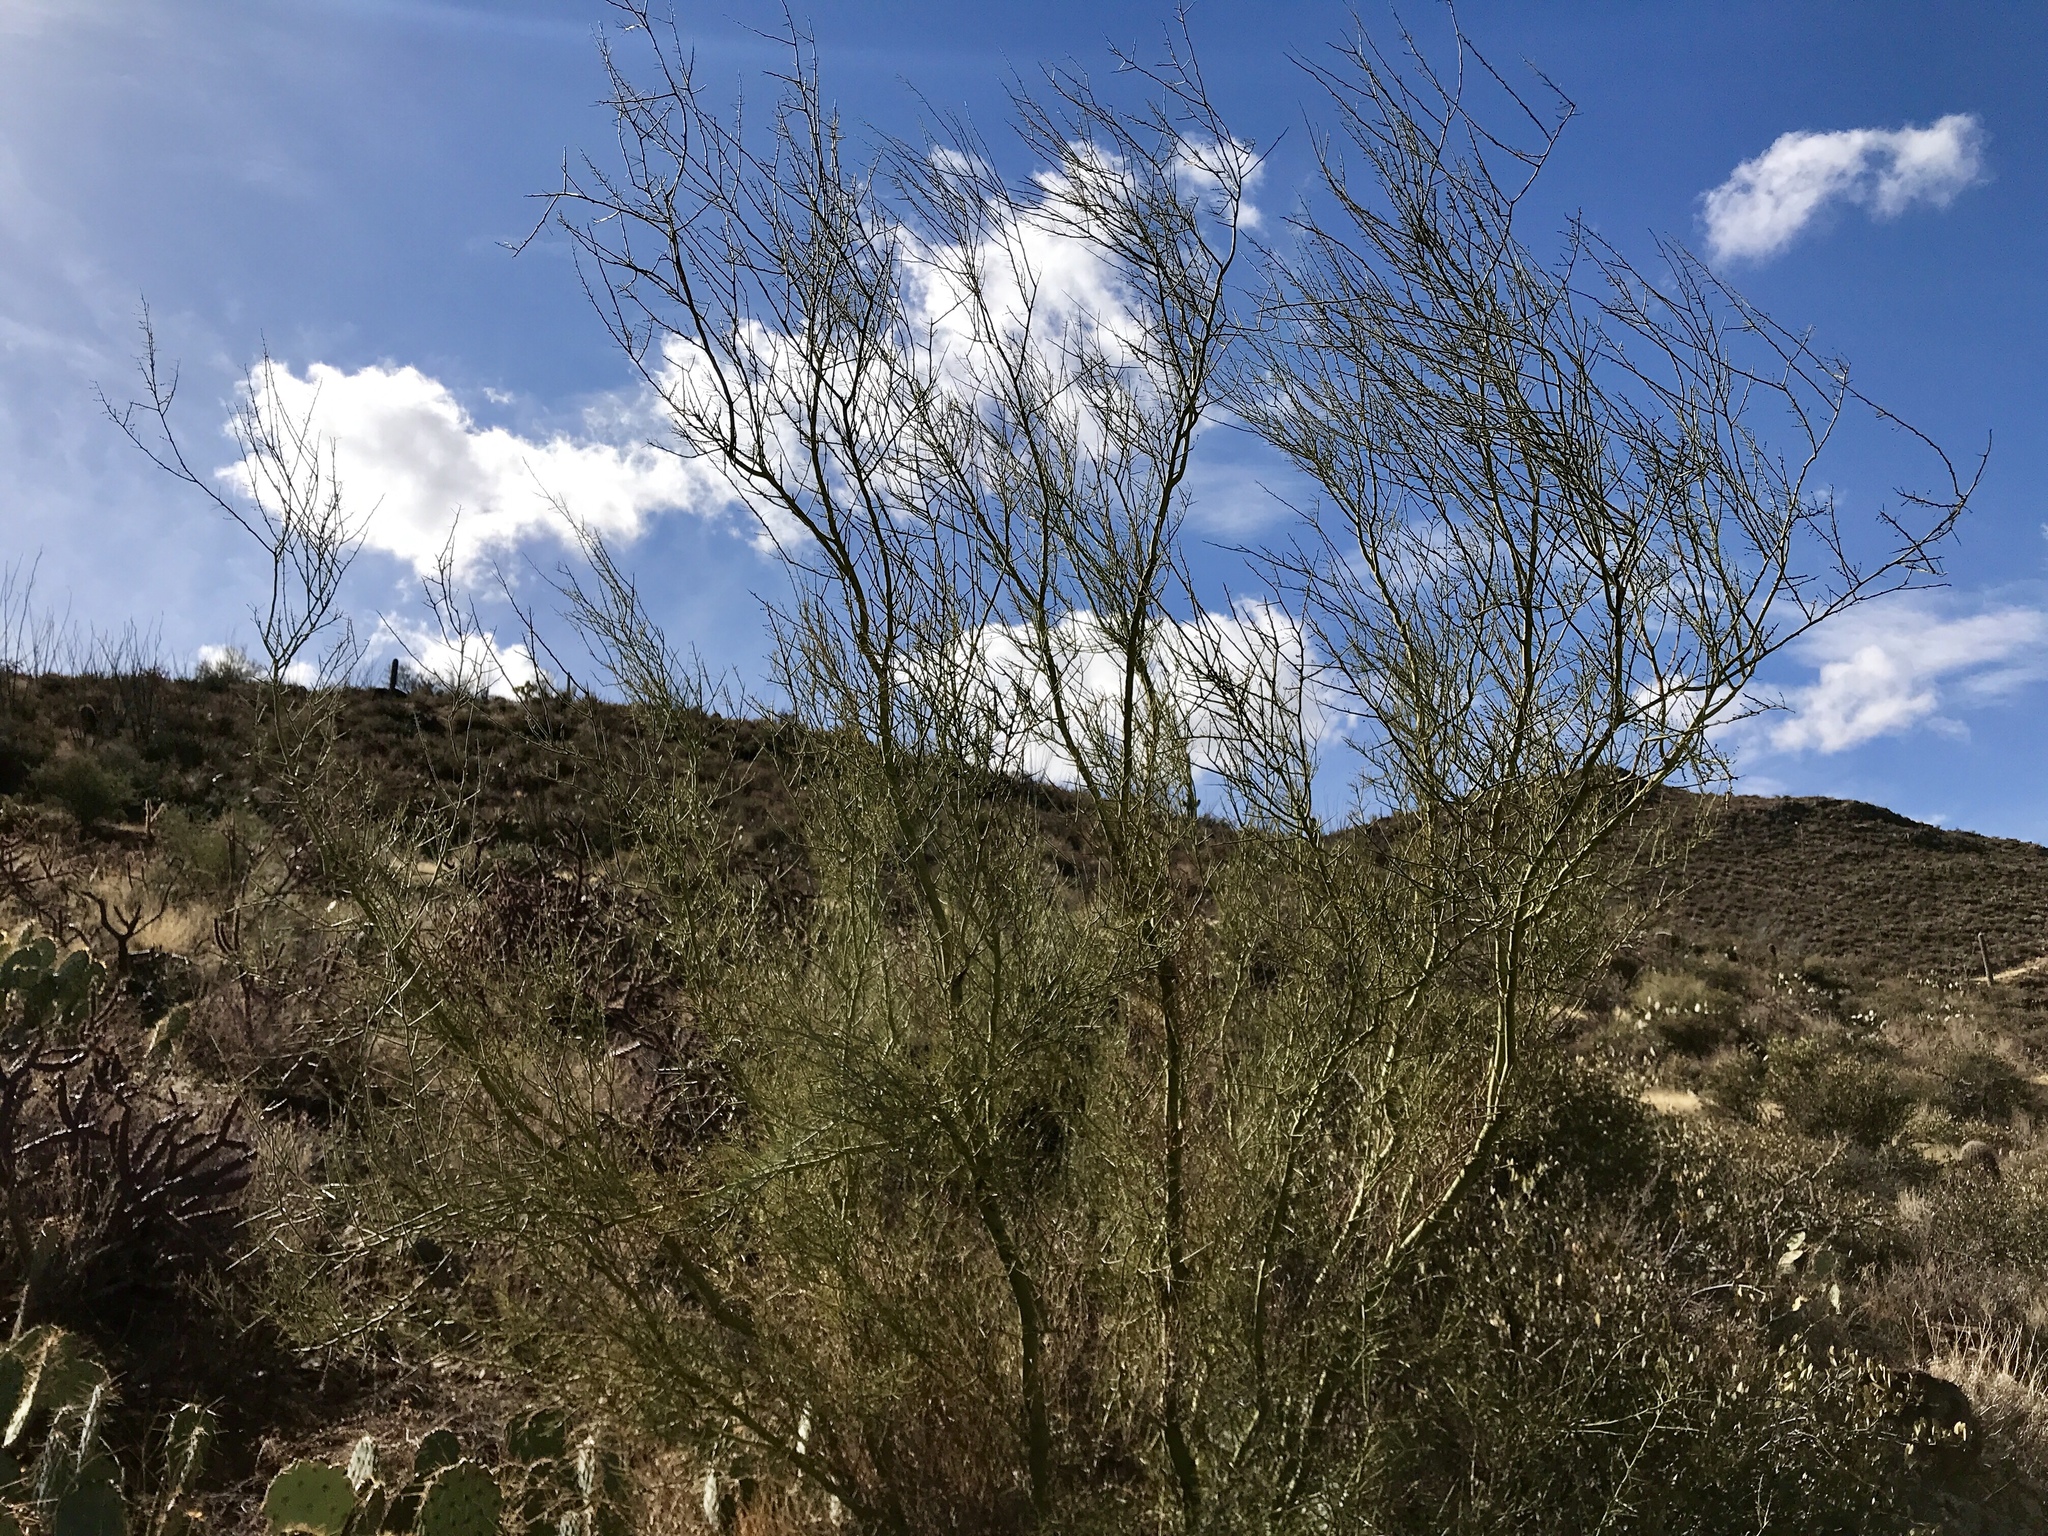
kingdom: Plantae
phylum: Tracheophyta
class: Magnoliopsida
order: Fabales
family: Fabaceae
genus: Parkinsonia
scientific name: Parkinsonia microphylla
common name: Yellow paloverde
